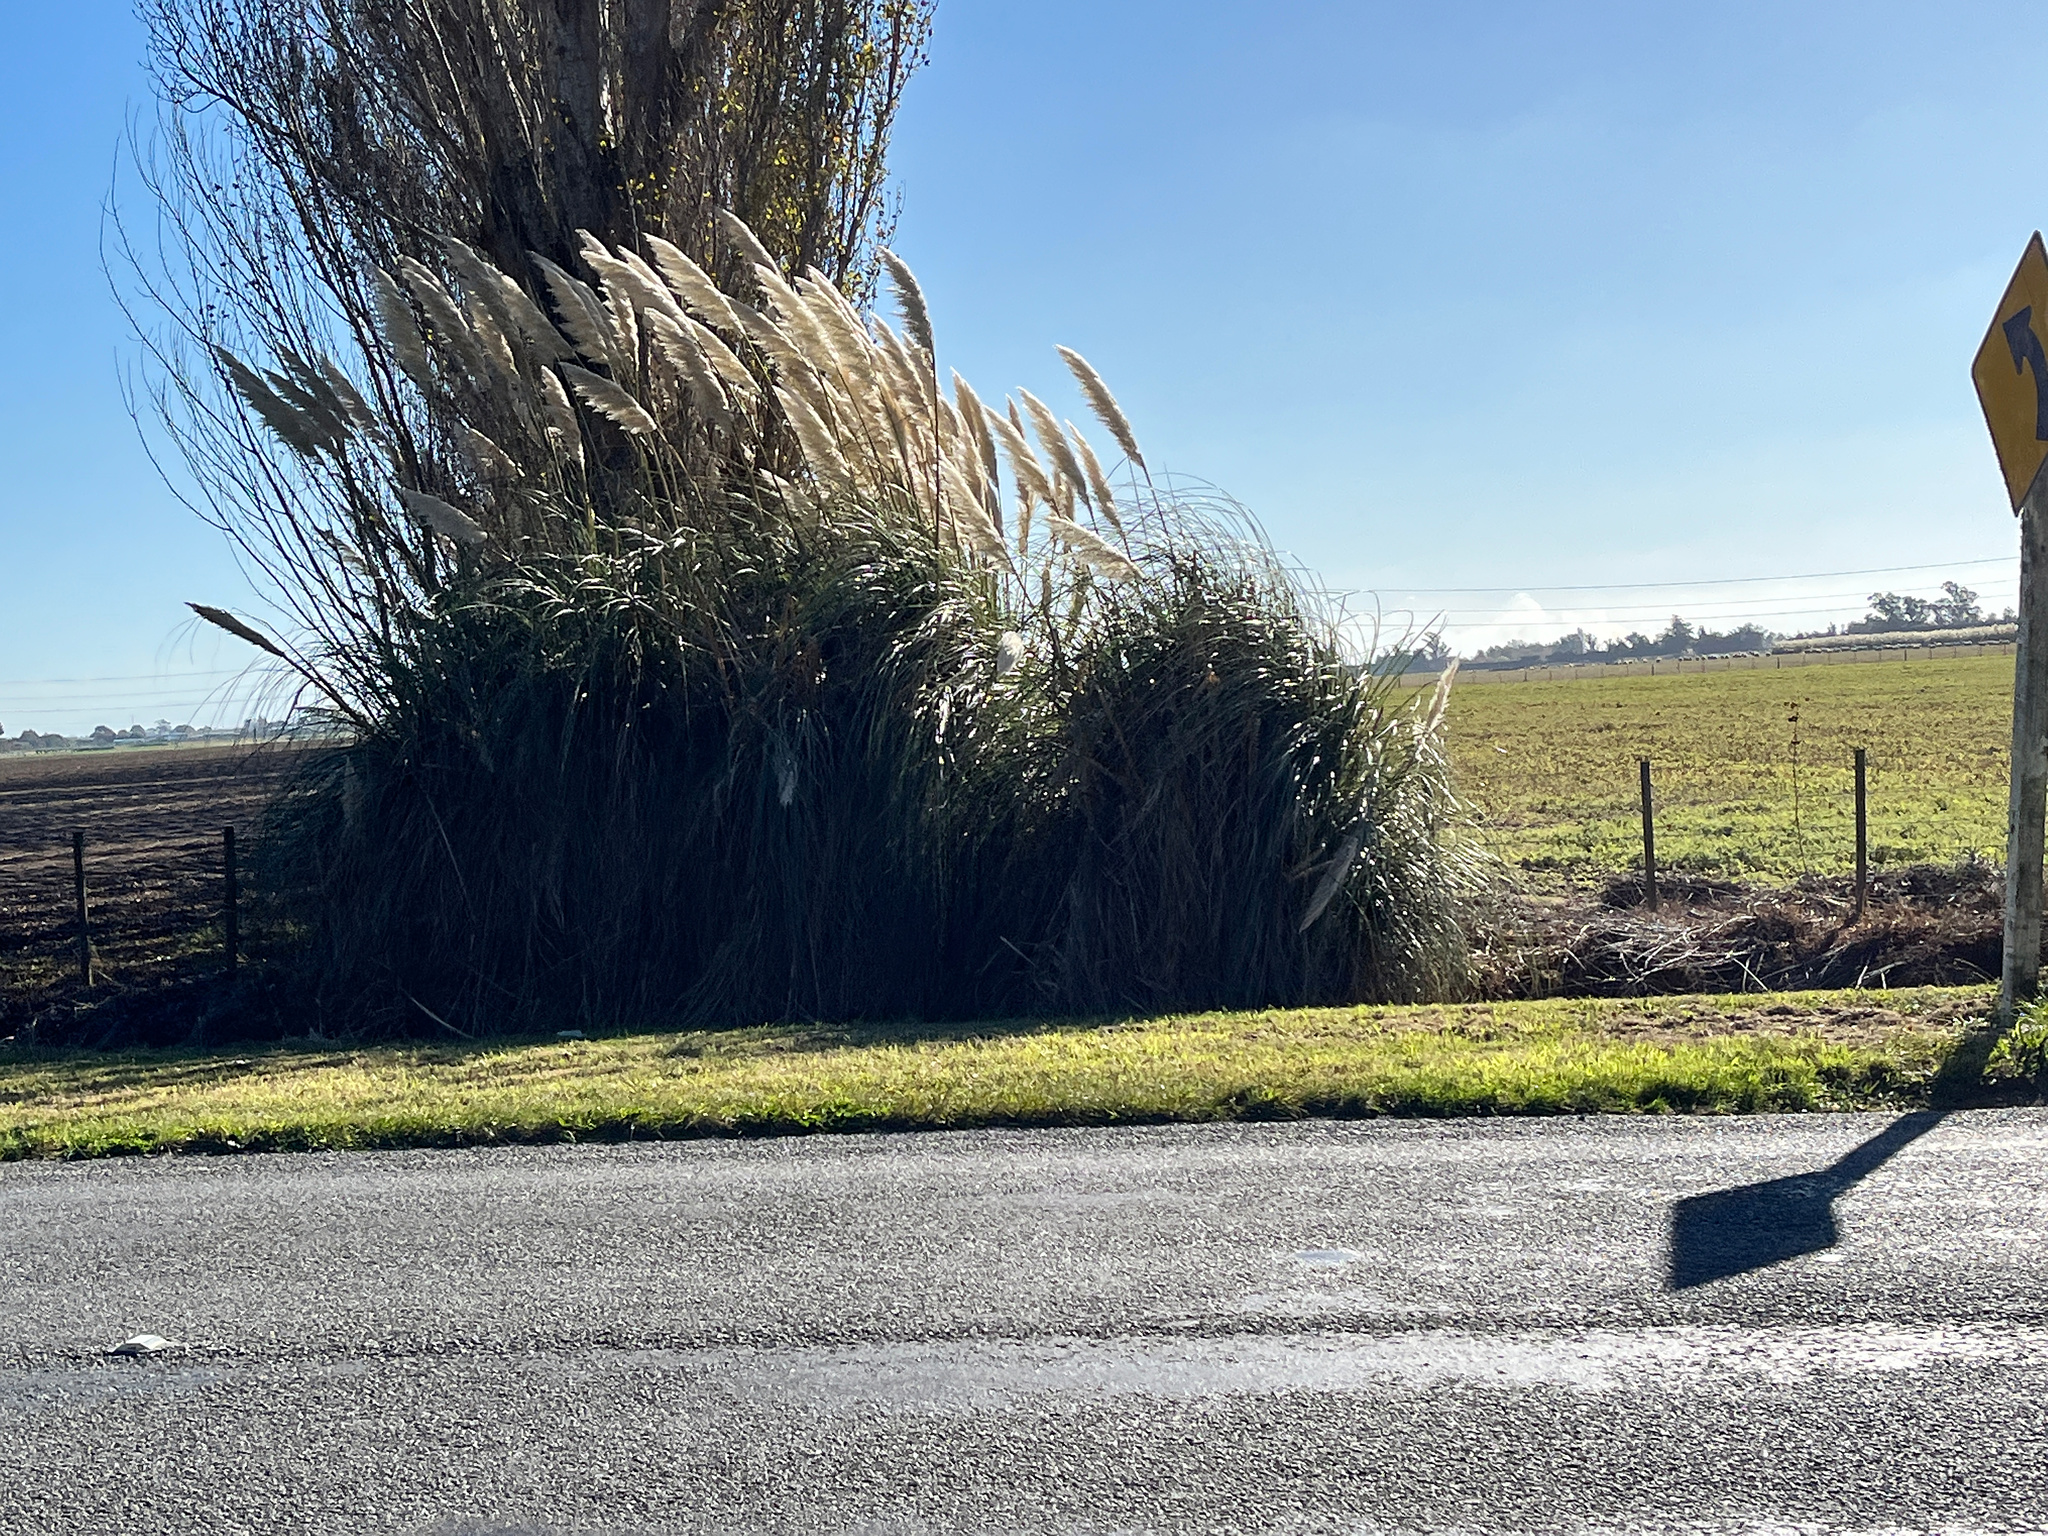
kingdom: Plantae
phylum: Tracheophyta
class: Liliopsida
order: Poales
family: Poaceae
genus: Cortaderia
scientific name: Cortaderia selloana
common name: Uruguayan pampas grass
